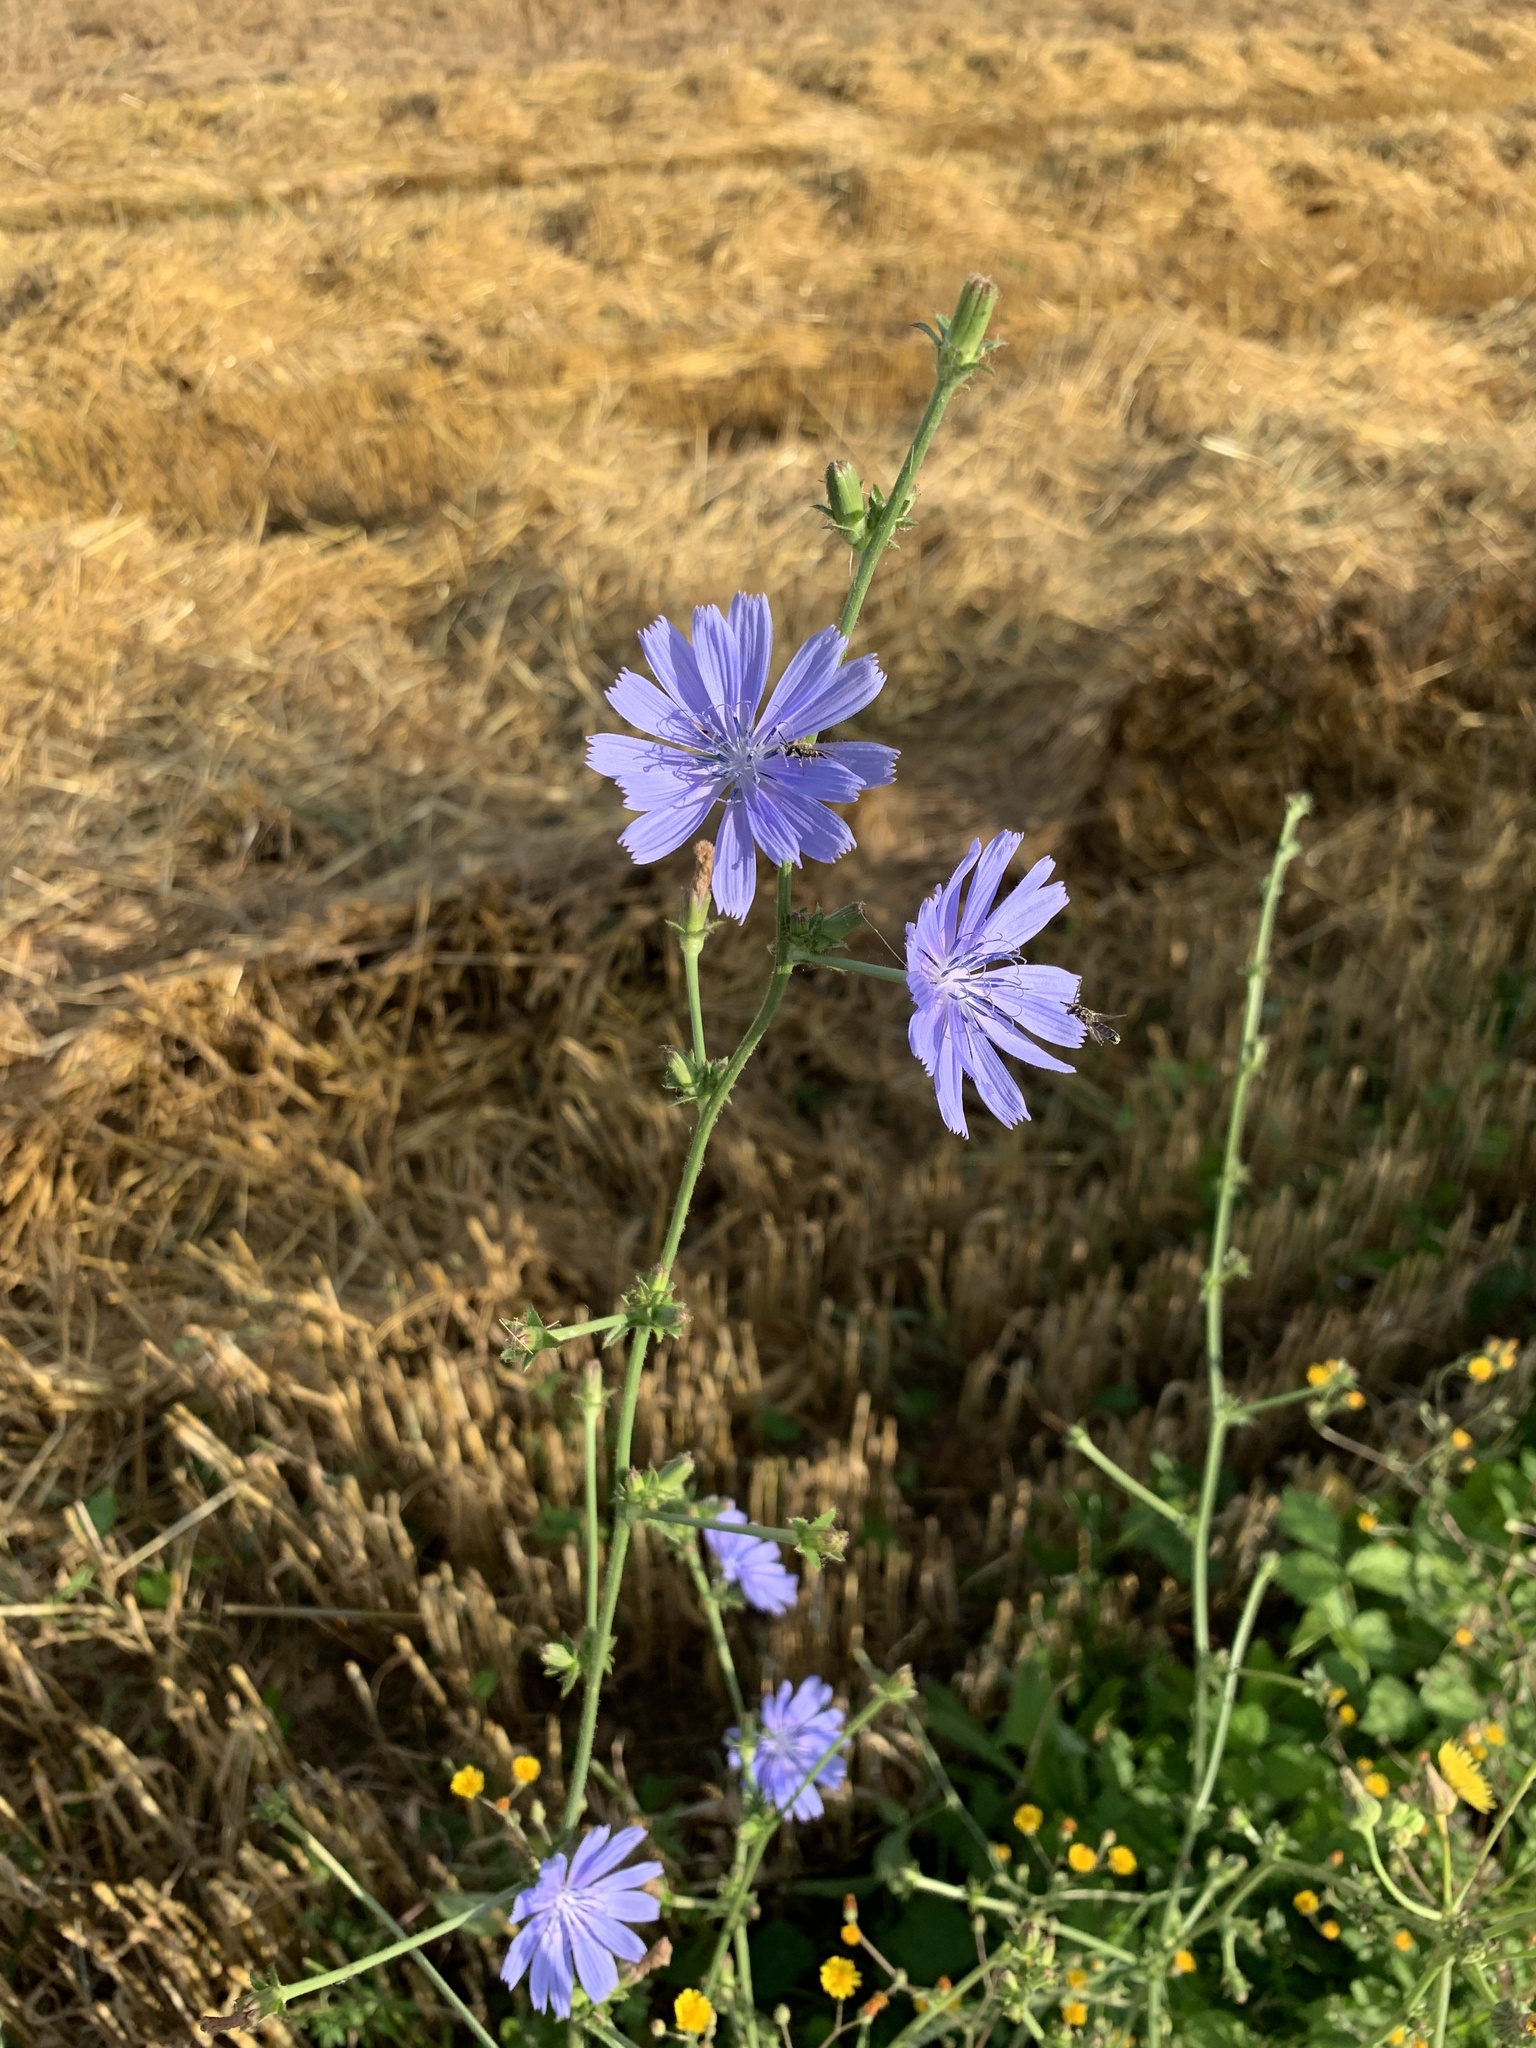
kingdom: Plantae
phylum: Tracheophyta
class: Magnoliopsida
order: Asterales
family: Asteraceae
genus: Cichorium
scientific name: Cichorium intybus
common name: Chicory
